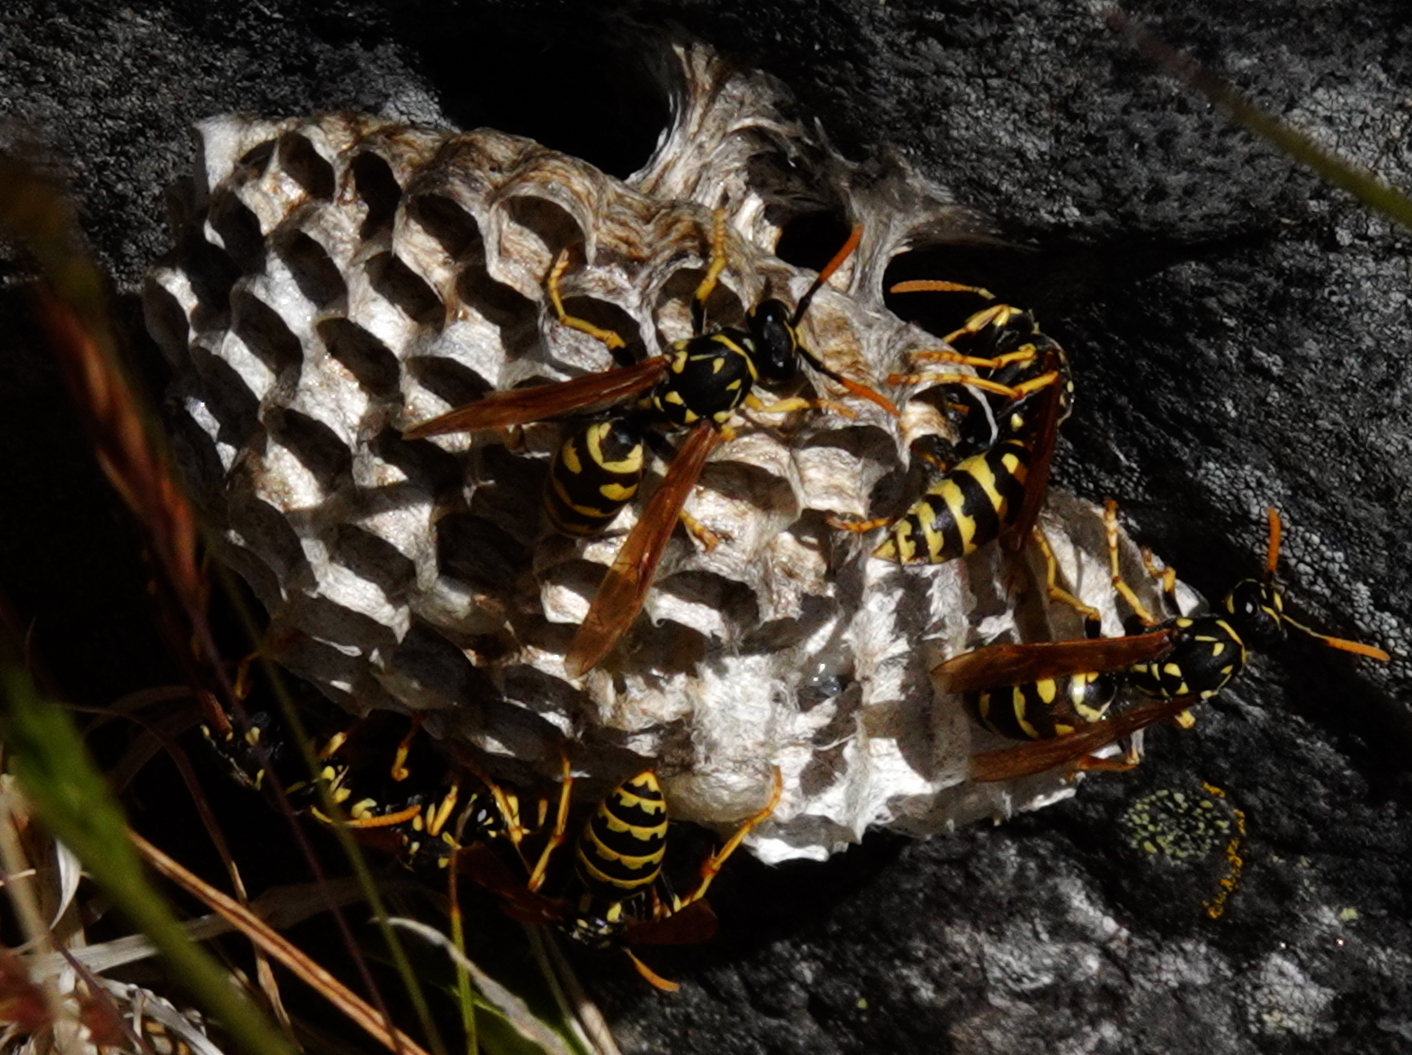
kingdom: Animalia
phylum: Arthropoda
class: Insecta
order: Hymenoptera
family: Eumenidae
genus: Polistes
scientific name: Polistes dominula
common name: Paper wasp
